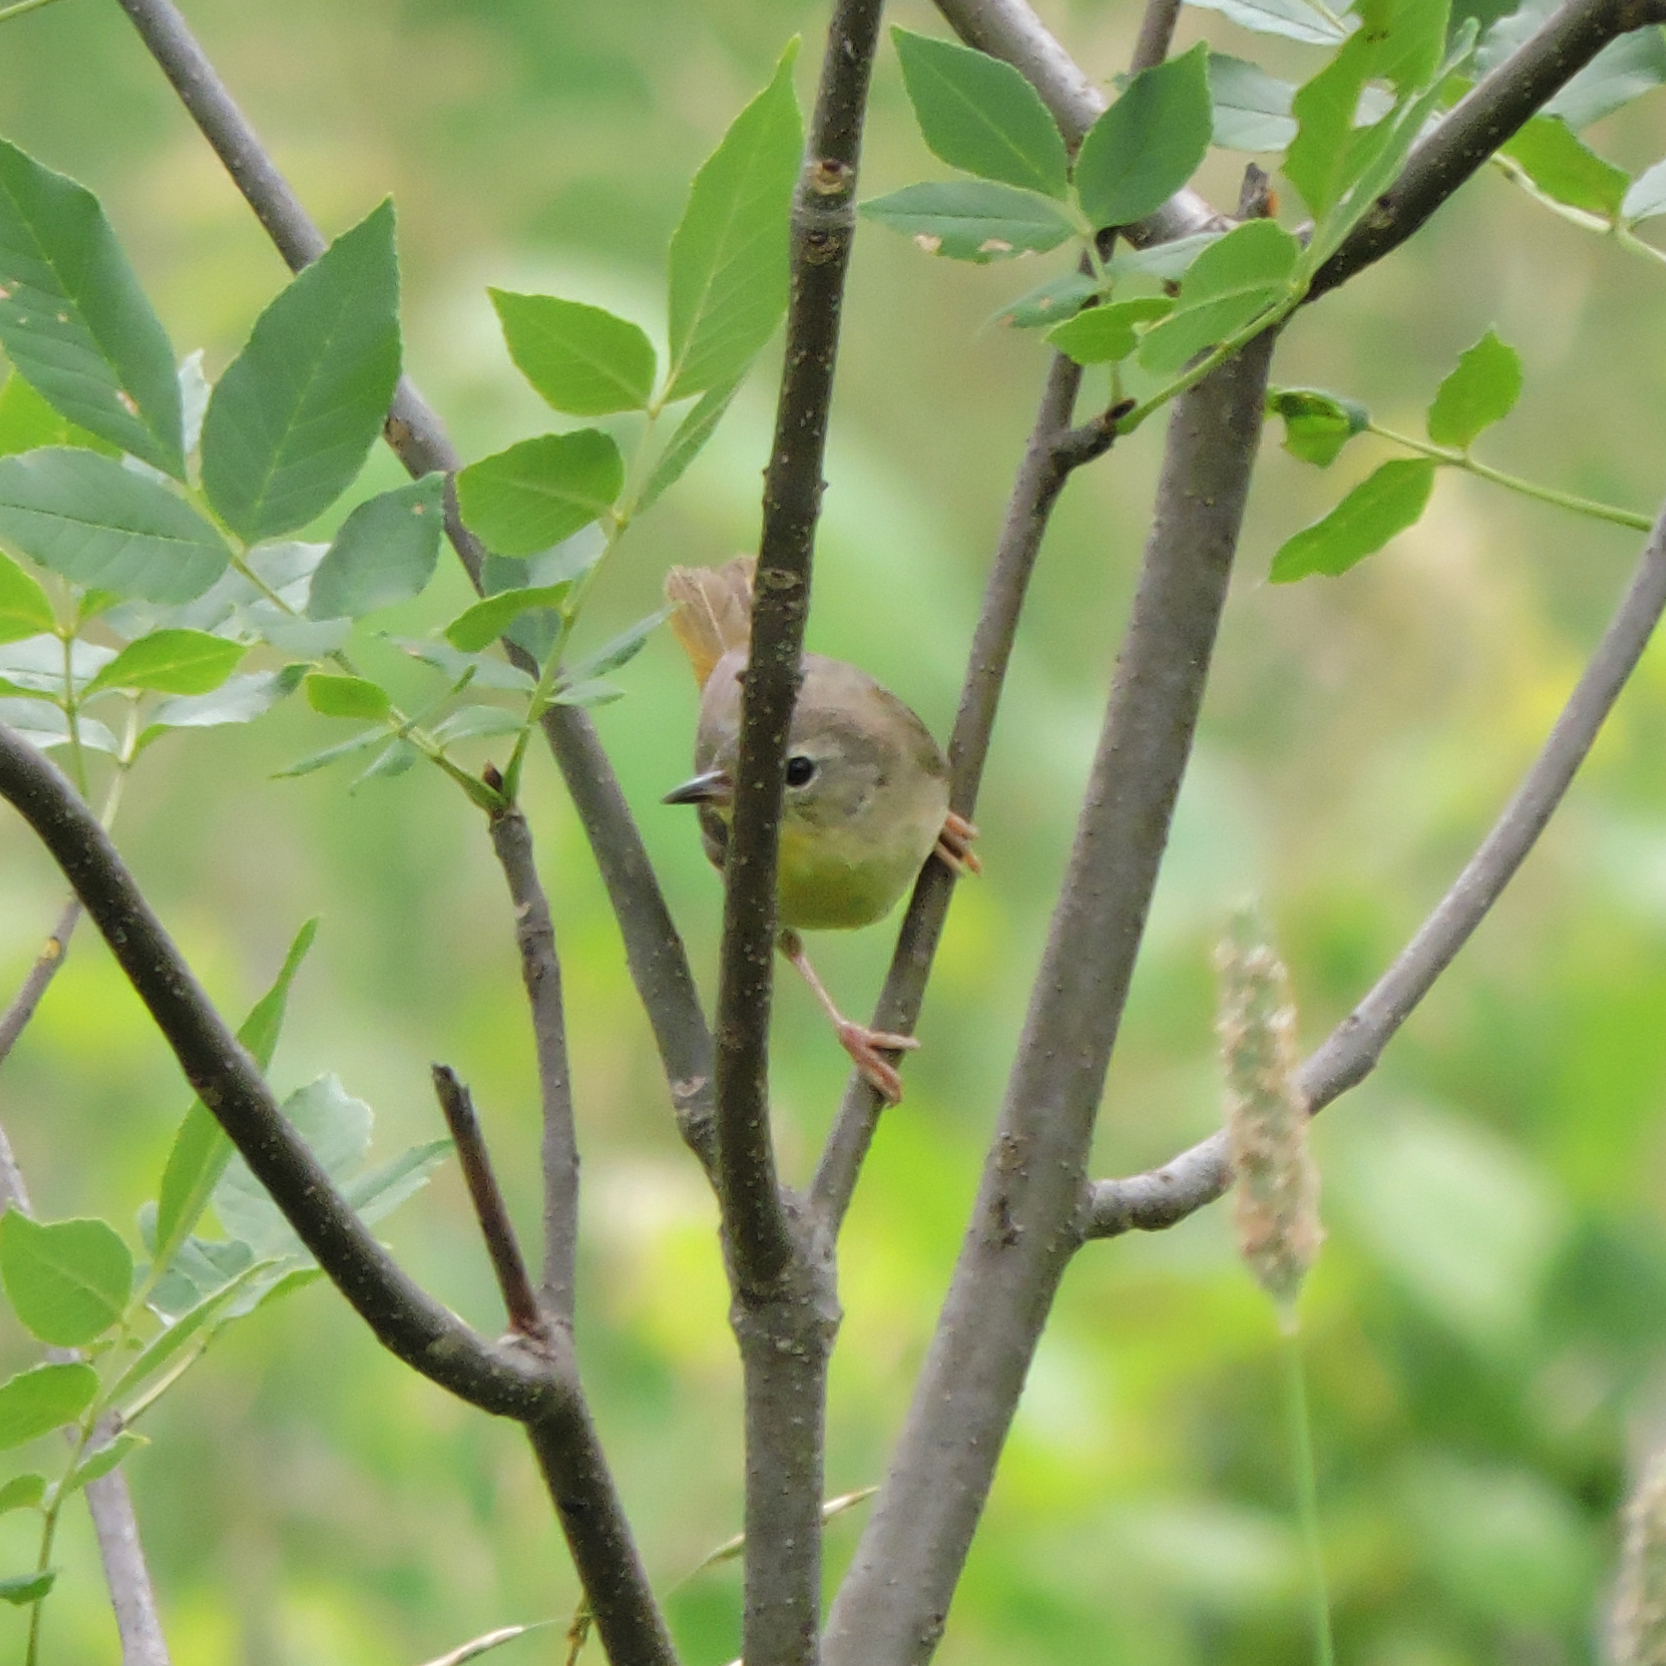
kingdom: Animalia
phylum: Chordata
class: Aves
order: Passeriformes
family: Parulidae
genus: Geothlypis
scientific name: Geothlypis trichas
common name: Common yellowthroat
